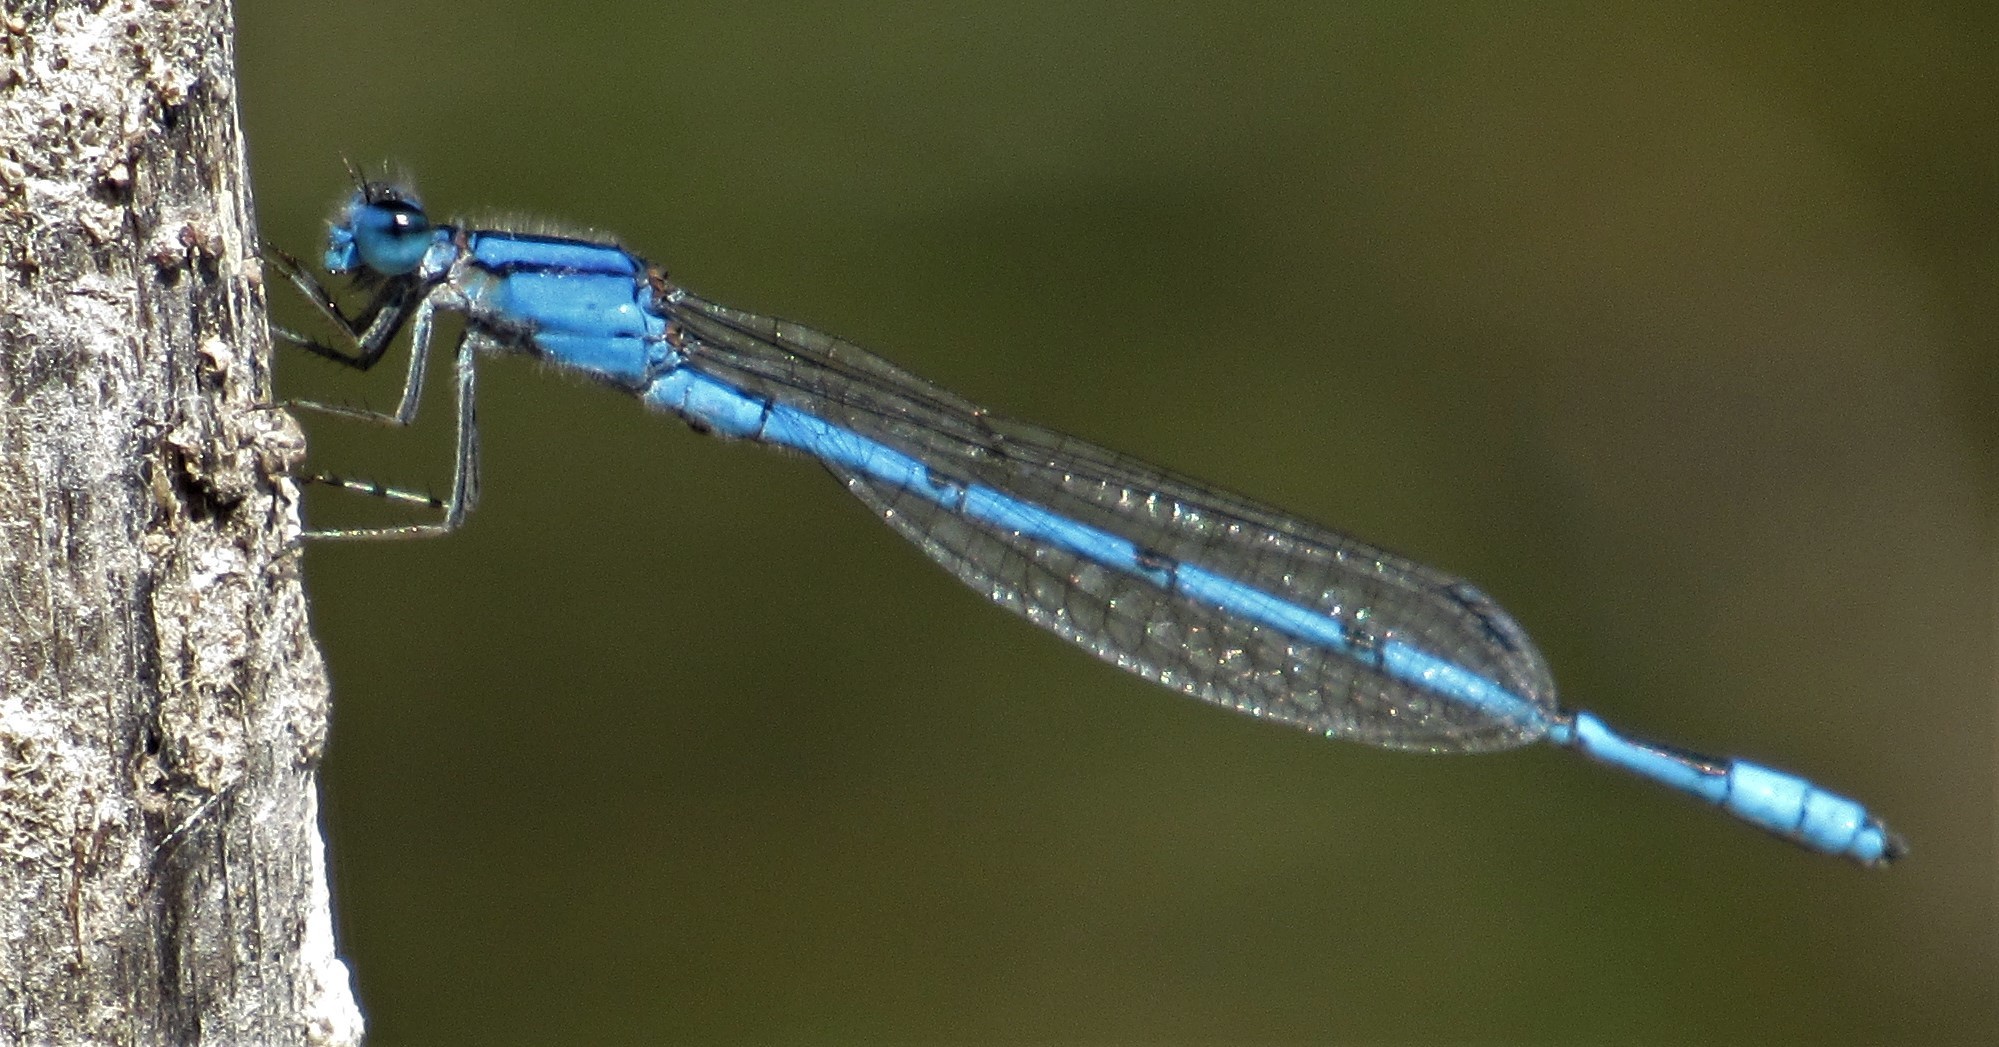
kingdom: Animalia
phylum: Arthropoda
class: Insecta
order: Odonata
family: Coenagrionidae
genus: Enallagma
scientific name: Enallagma civile
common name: Damselfly
